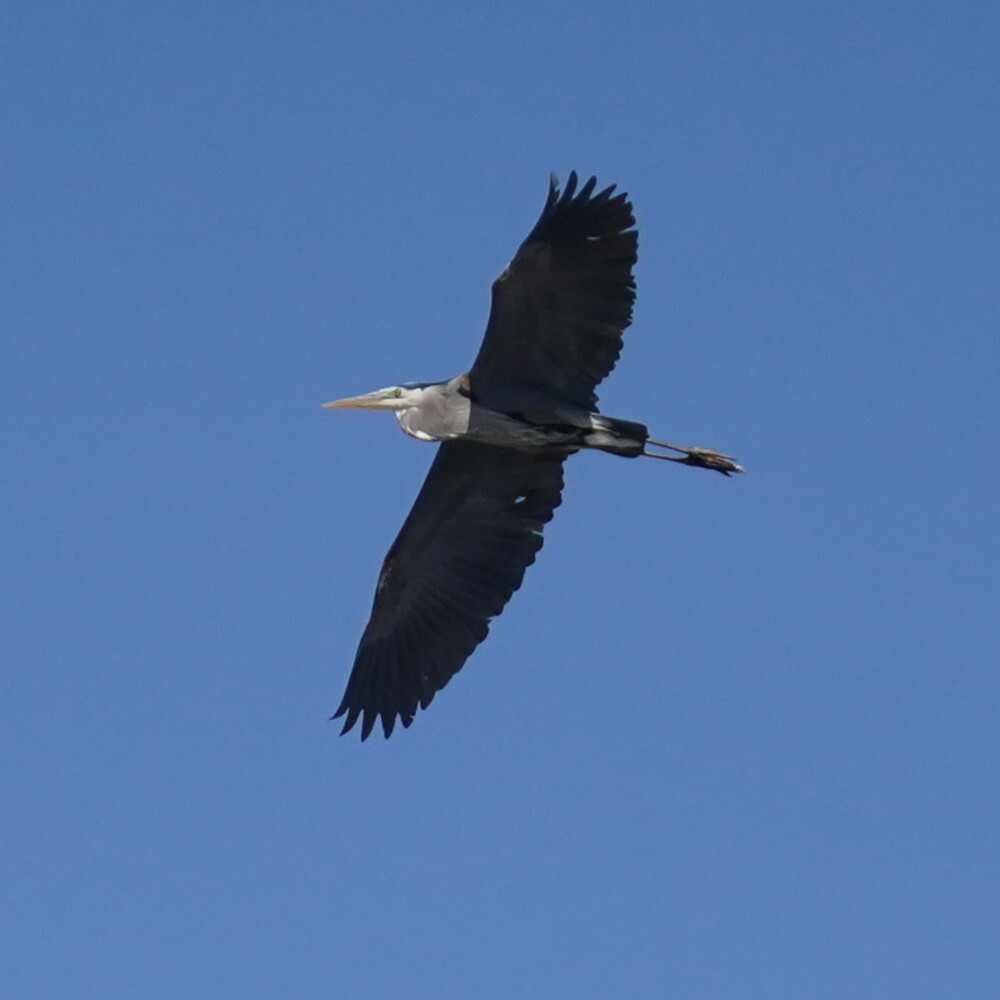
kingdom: Animalia
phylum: Chordata
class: Aves
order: Pelecaniformes
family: Ardeidae
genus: Ardea
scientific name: Ardea herodias
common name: Great blue heron
